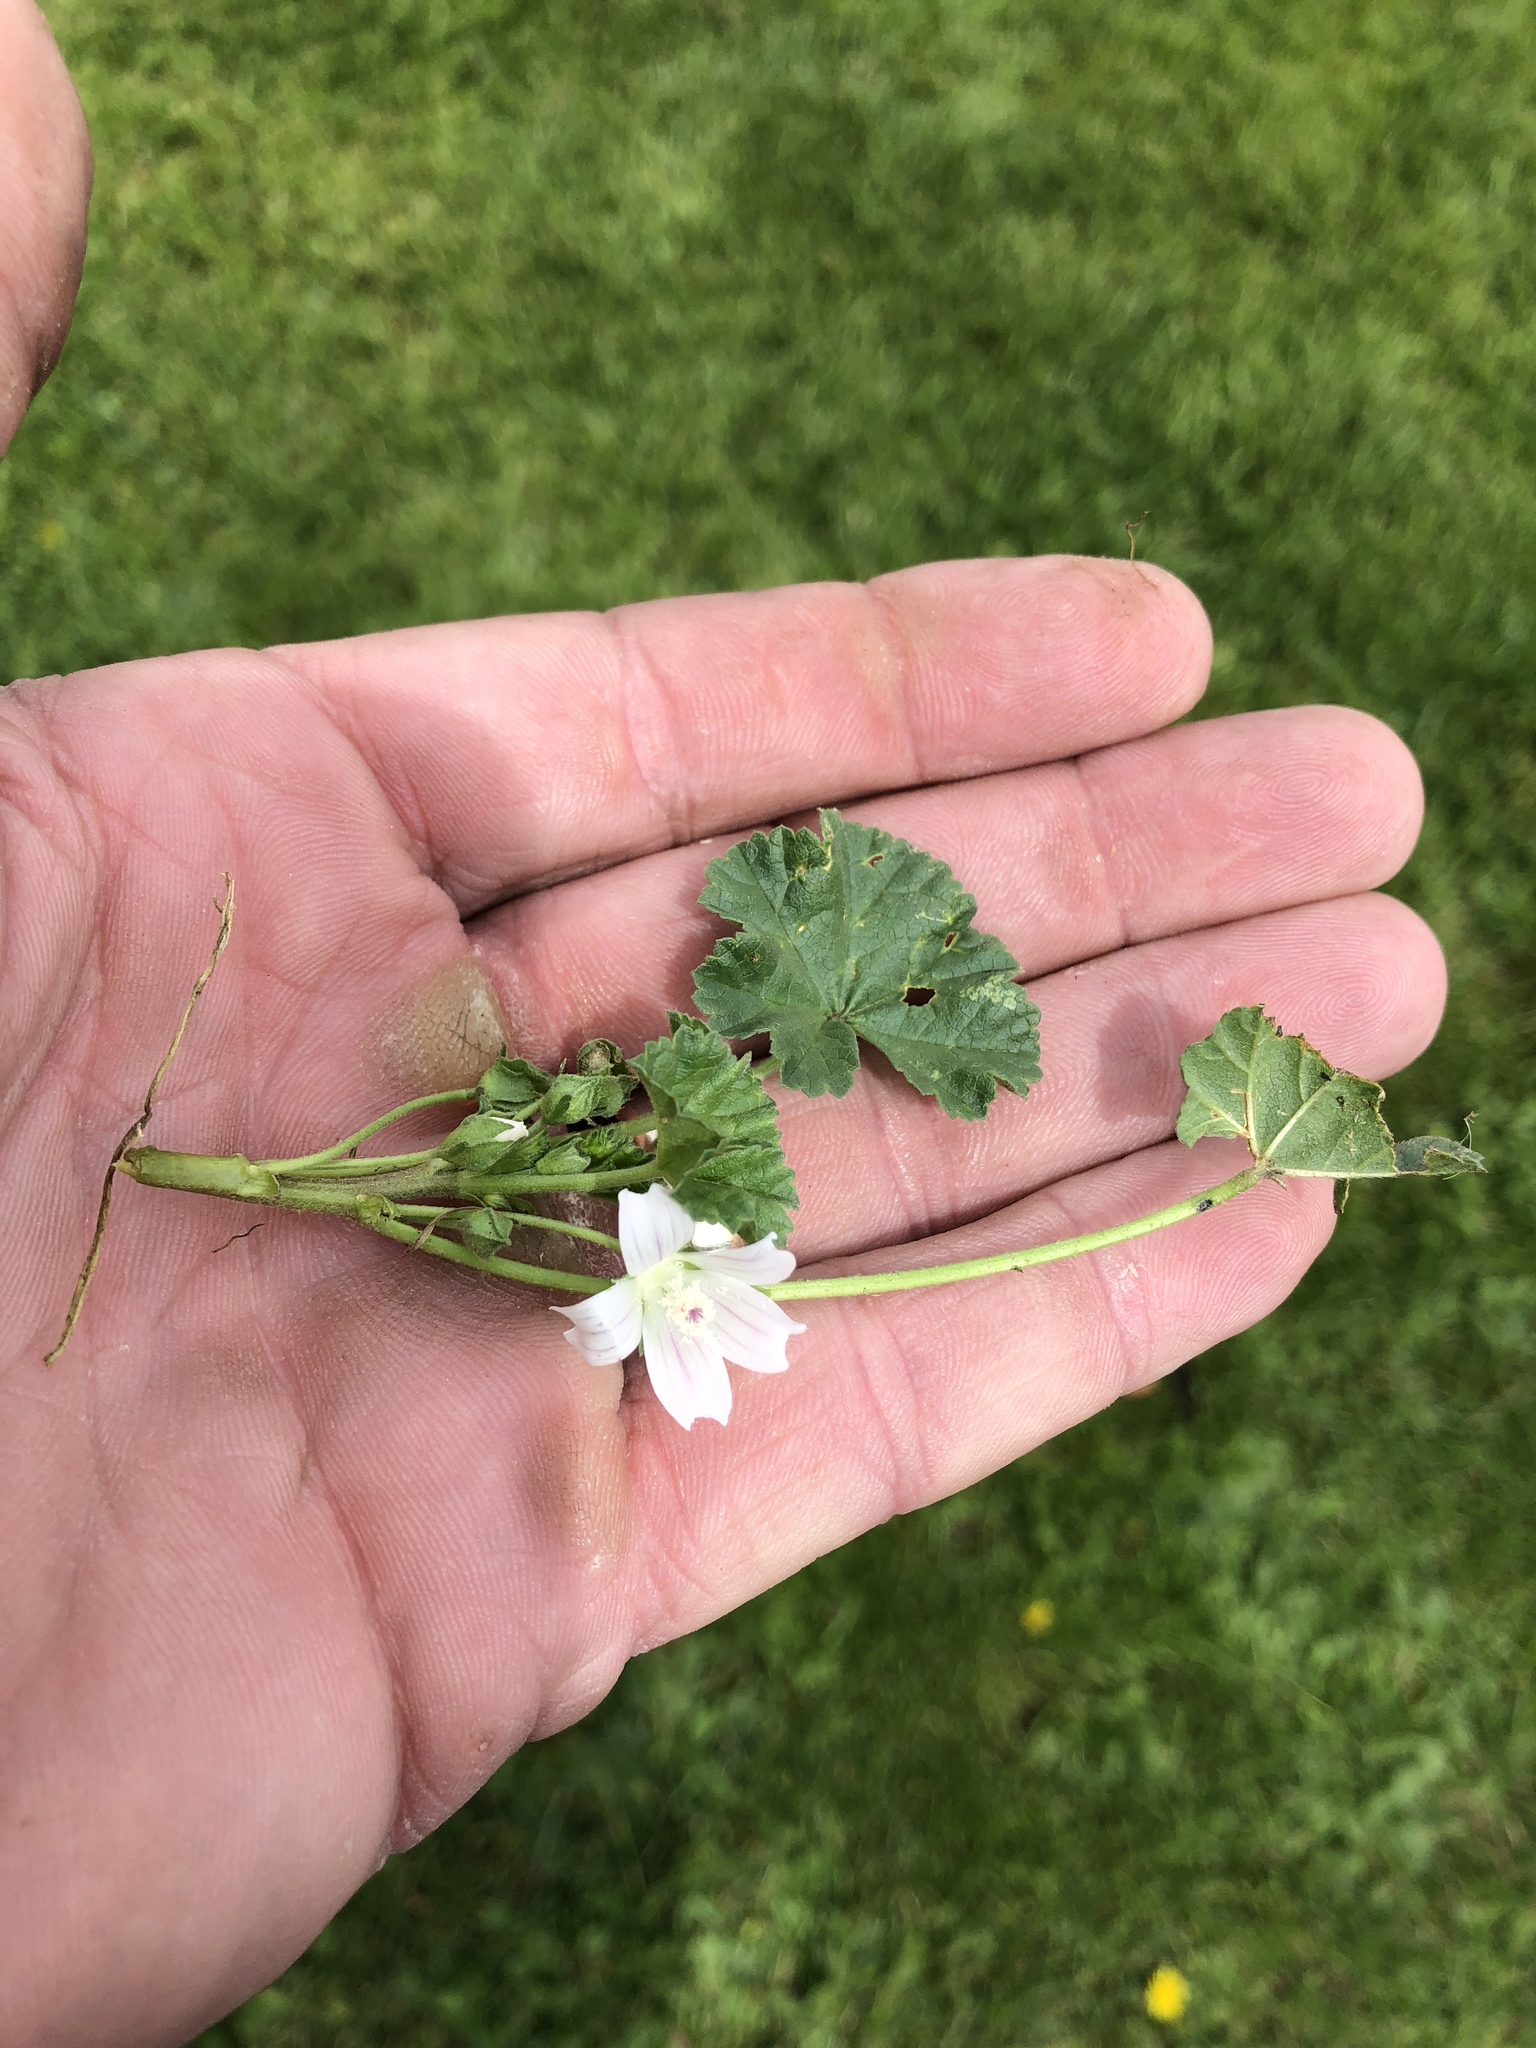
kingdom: Plantae
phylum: Tracheophyta
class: Magnoliopsida
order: Malvales
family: Malvaceae
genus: Malva
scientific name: Malva neglecta
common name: Common mallow
